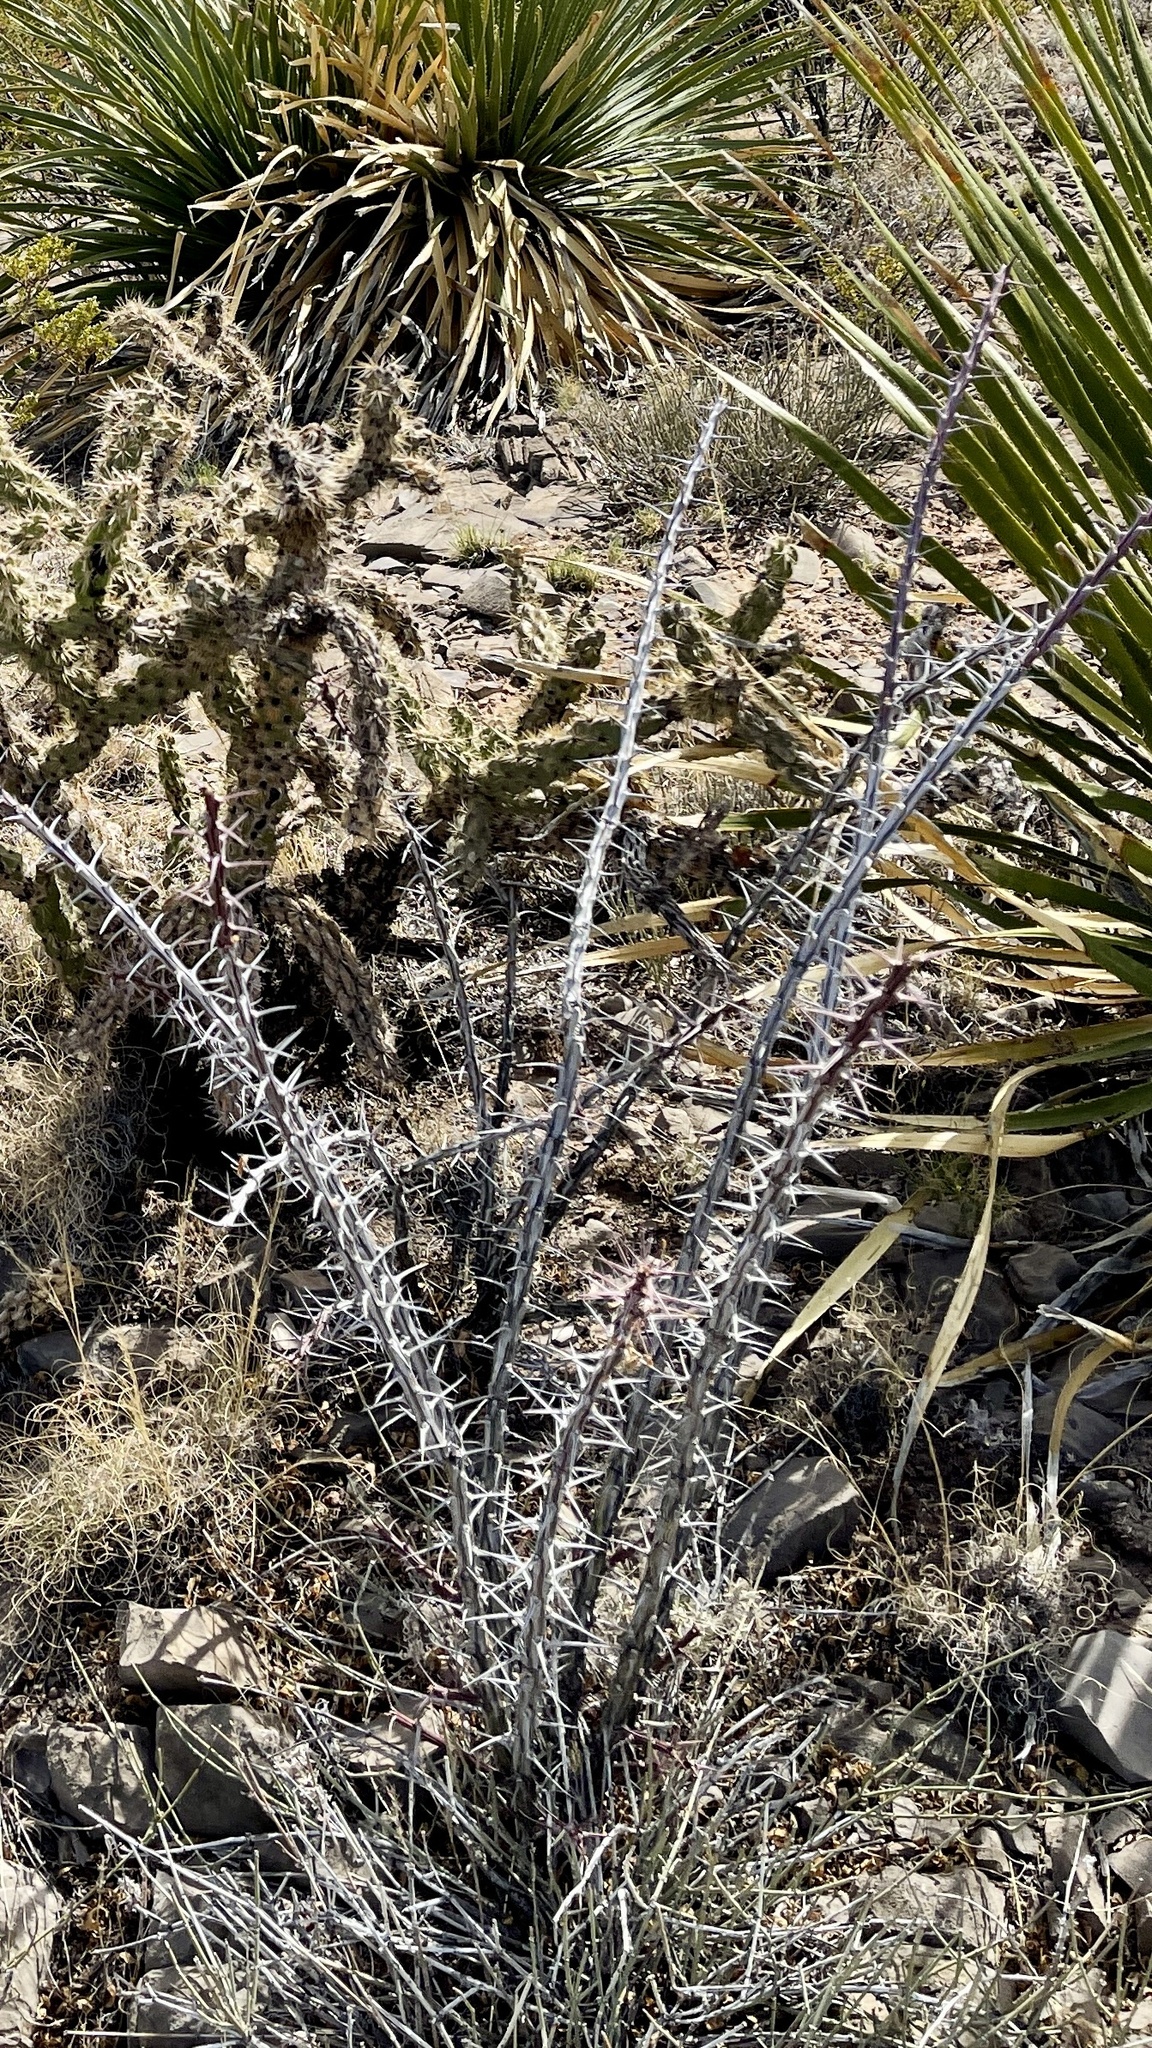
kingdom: Plantae
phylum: Tracheophyta
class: Magnoliopsida
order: Ericales
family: Fouquieriaceae
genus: Fouquieria
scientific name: Fouquieria splendens
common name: Vine-cactus
